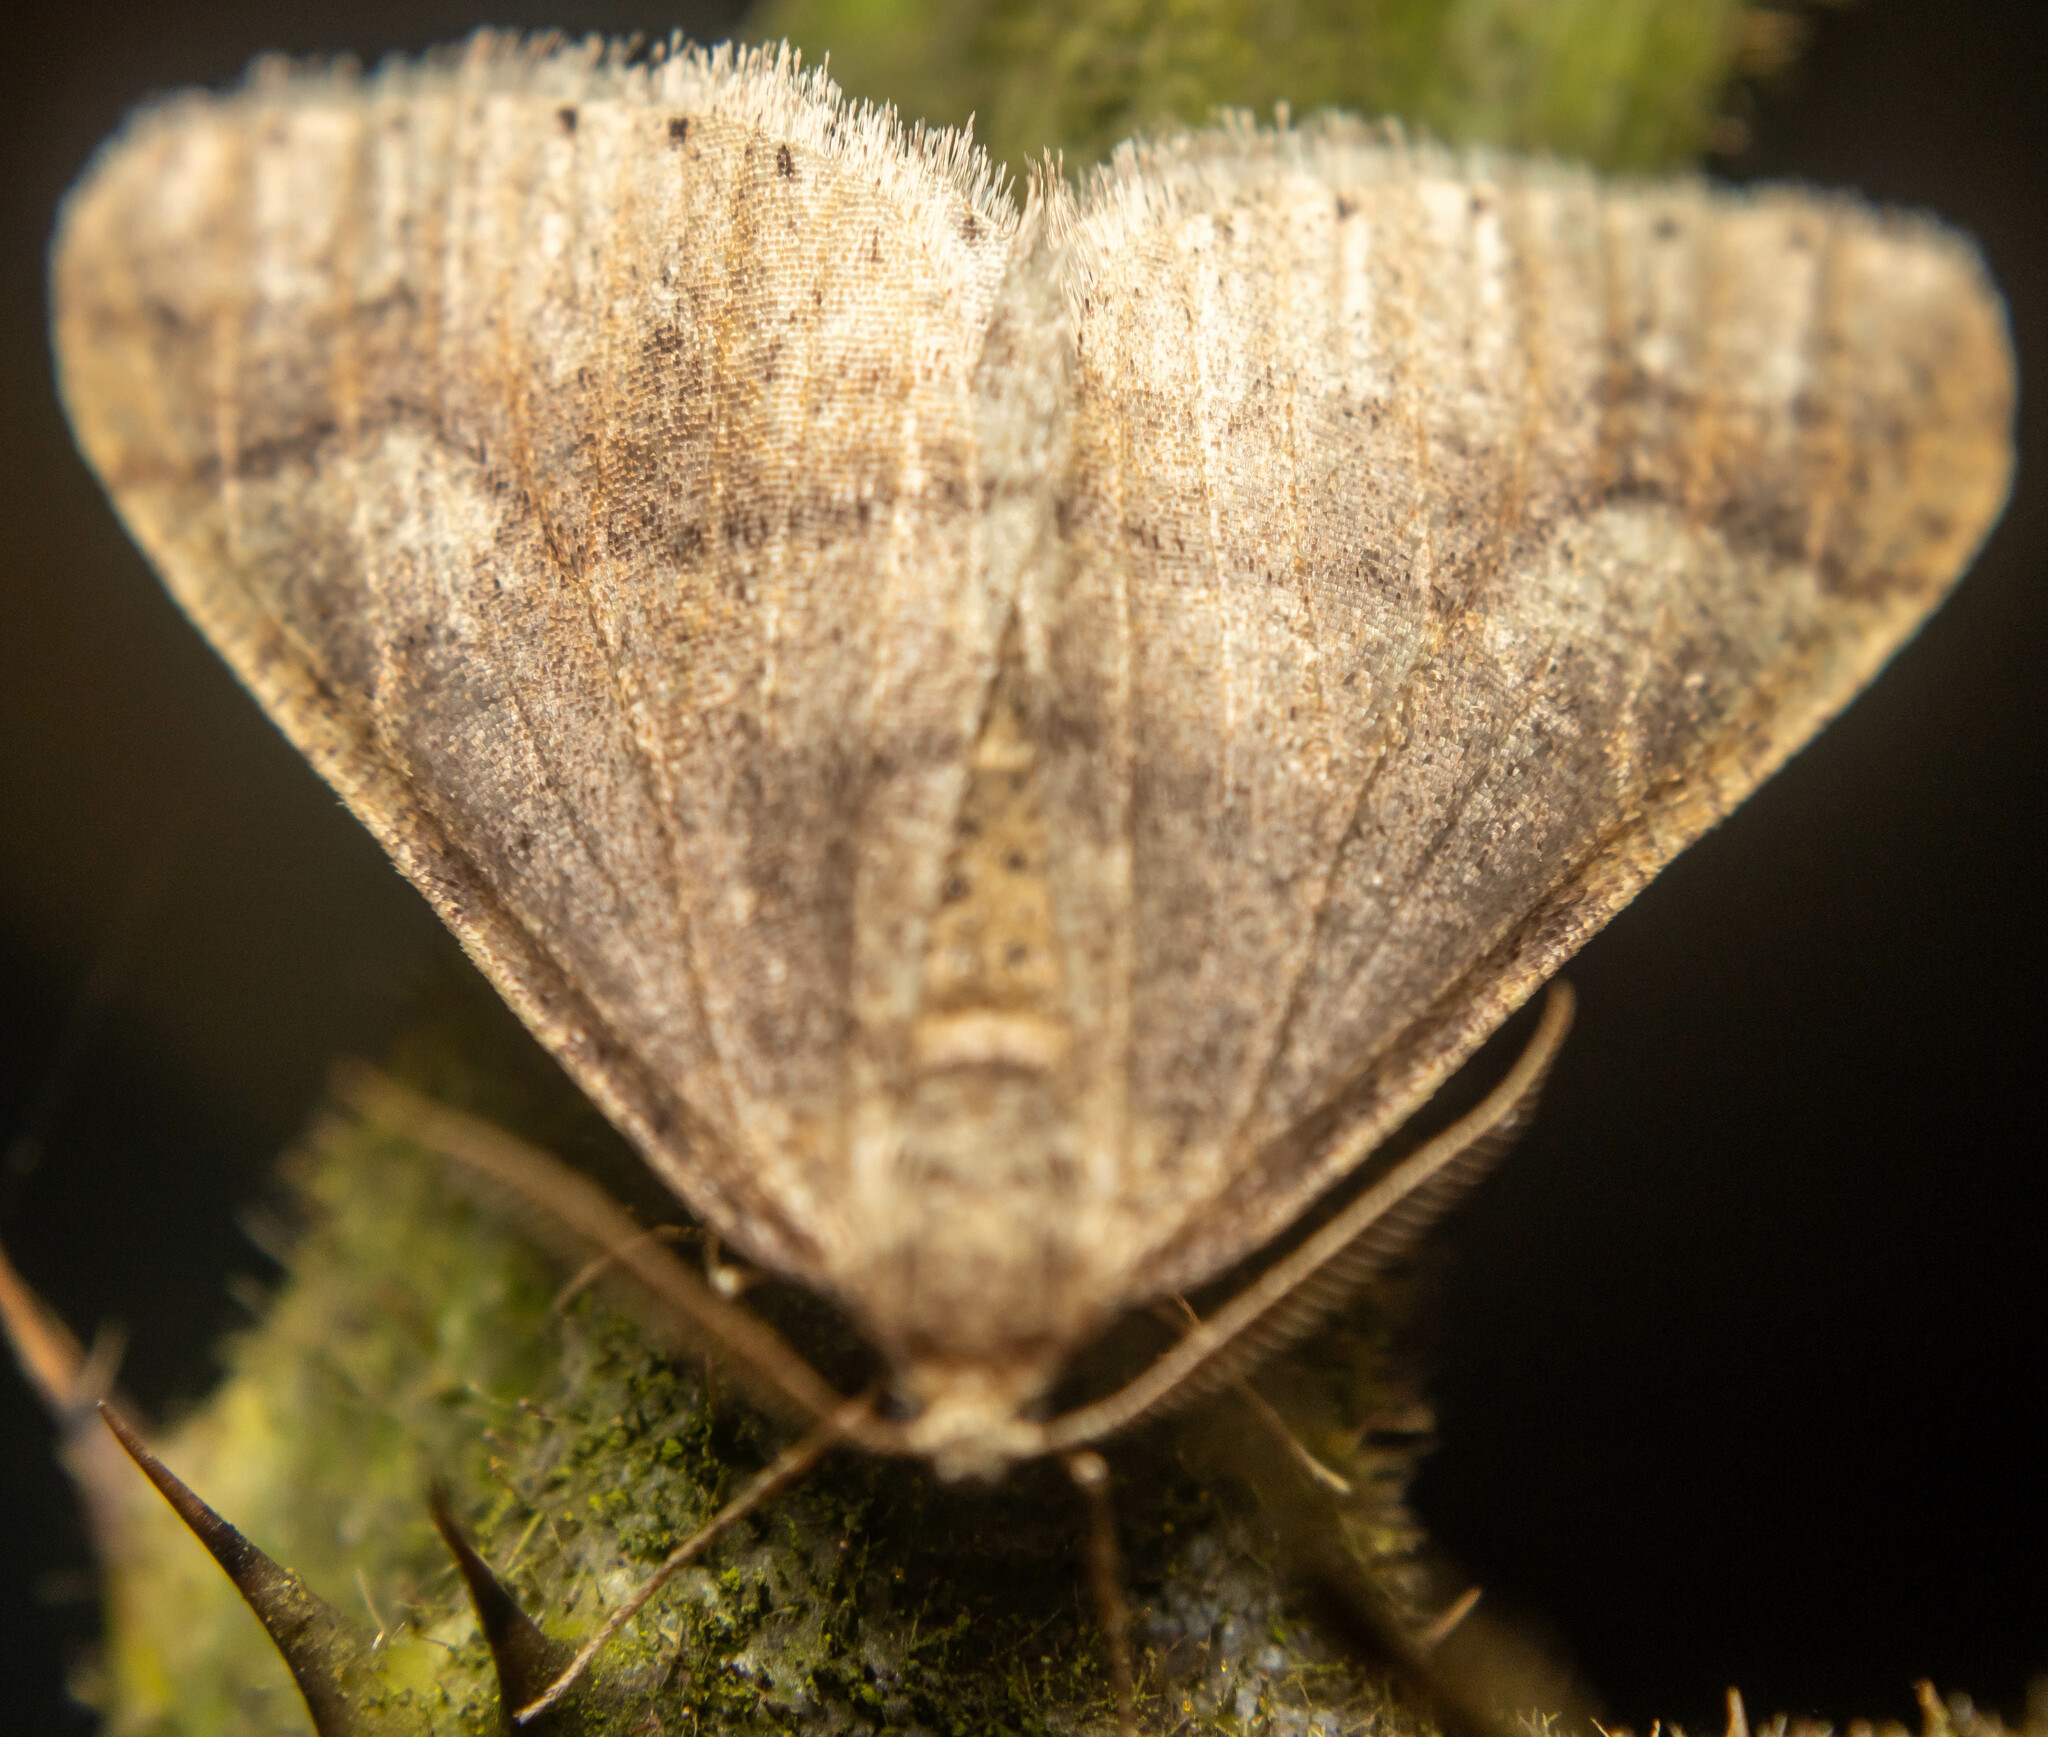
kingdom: Animalia
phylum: Arthropoda
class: Insecta
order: Lepidoptera
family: Geometridae
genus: Agriopis
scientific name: Agriopis marginaria
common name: Dotted border
